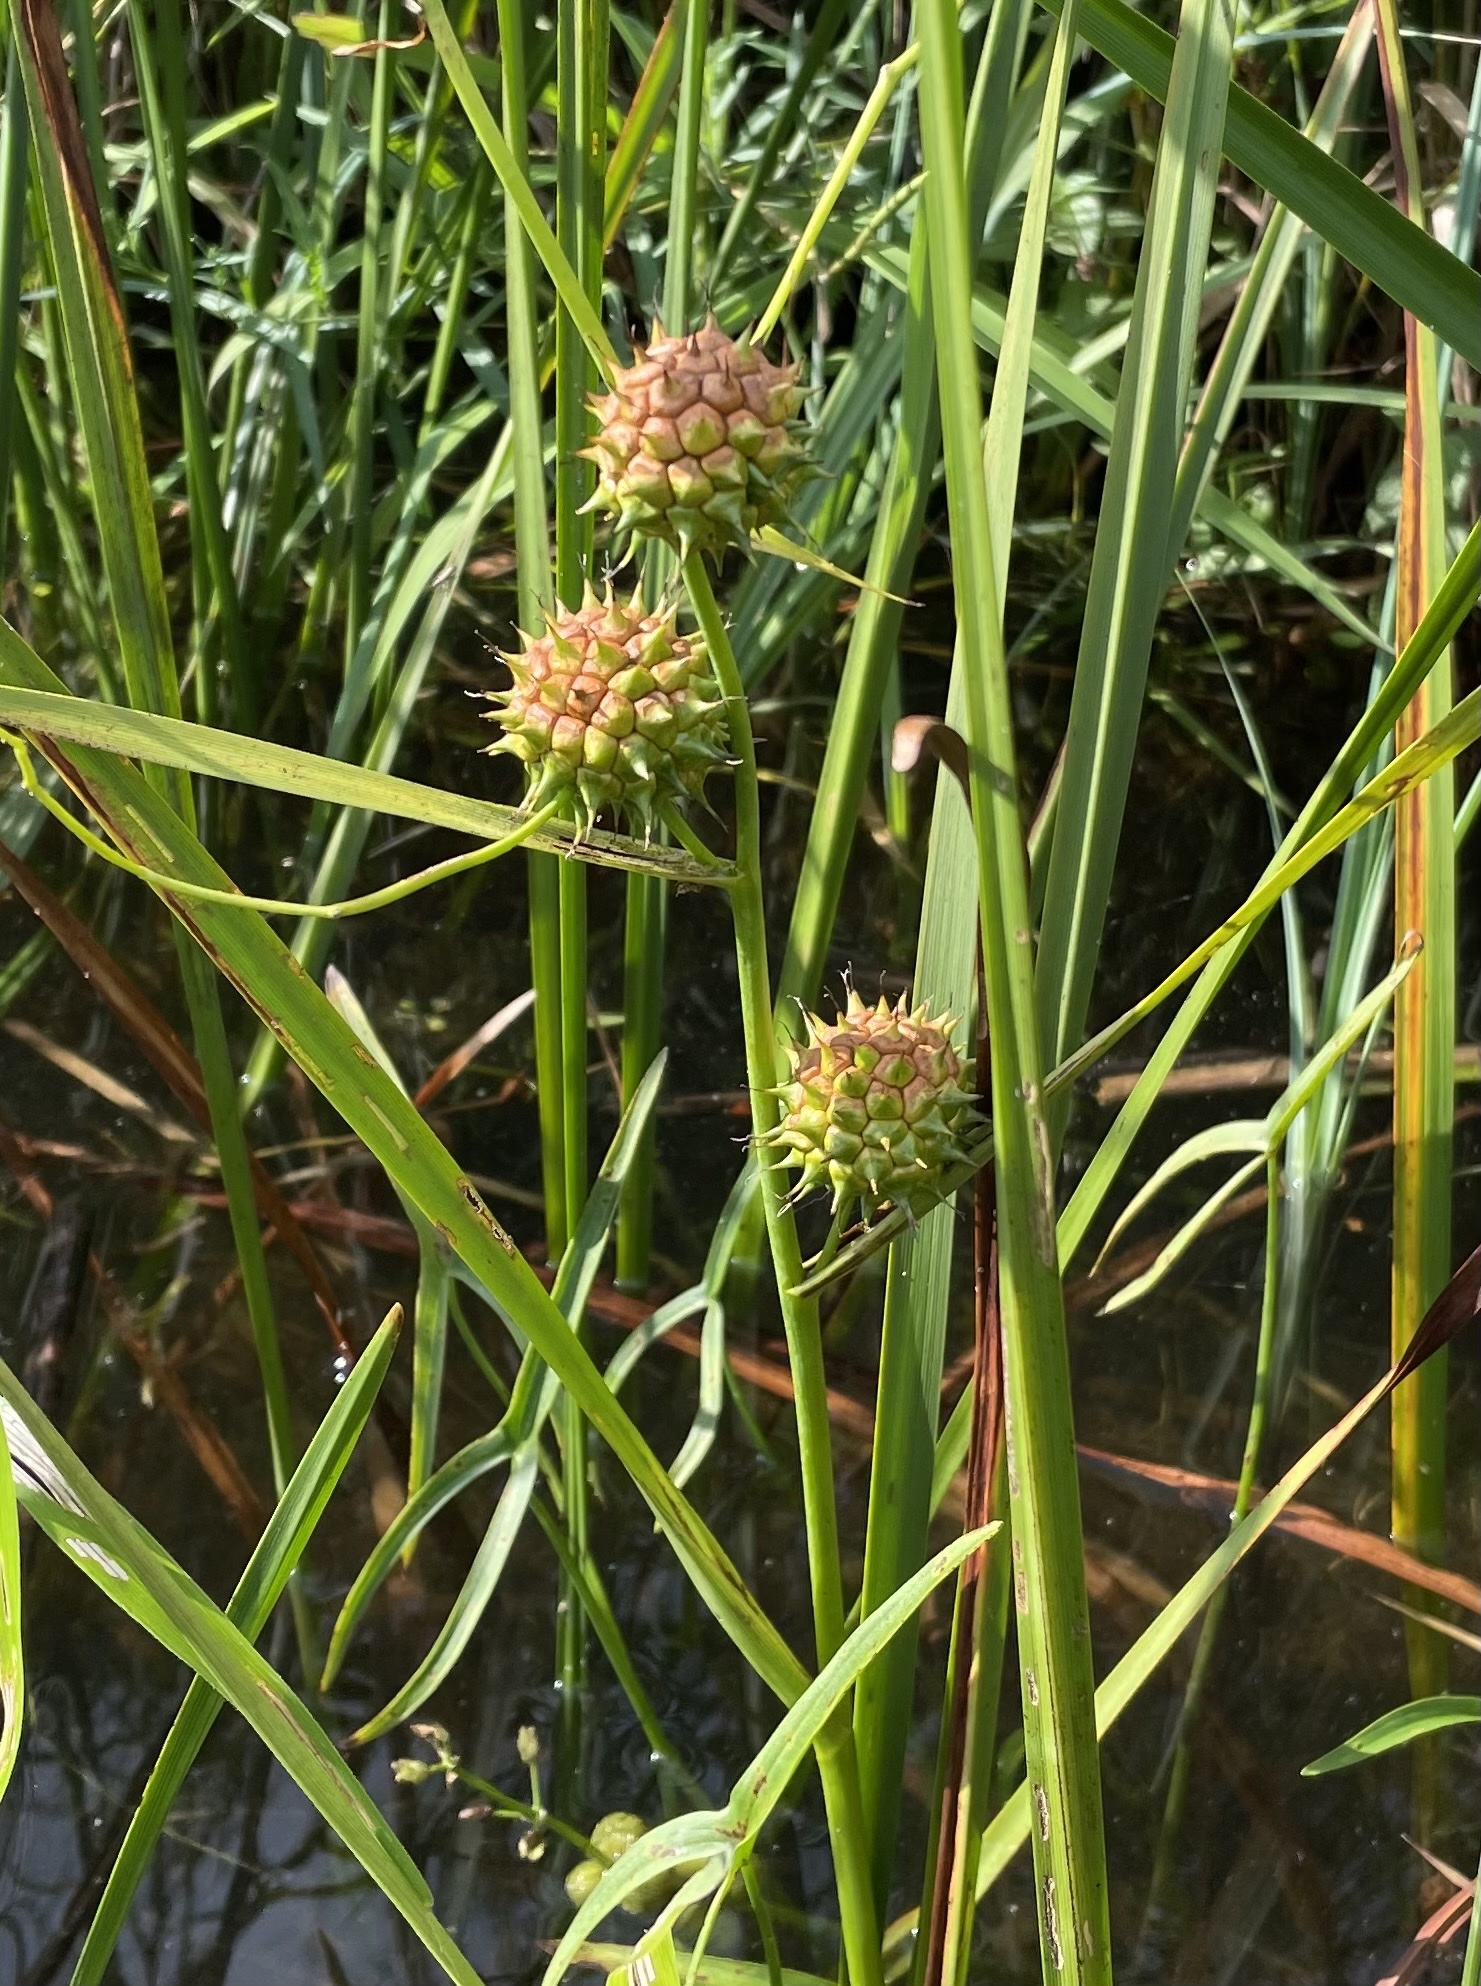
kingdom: Plantae
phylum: Tracheophyta
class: Liliopsida
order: Poales
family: Typhaceae
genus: Sparganium
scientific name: Sparganium eurycarpum
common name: Broad-fruited burreed
